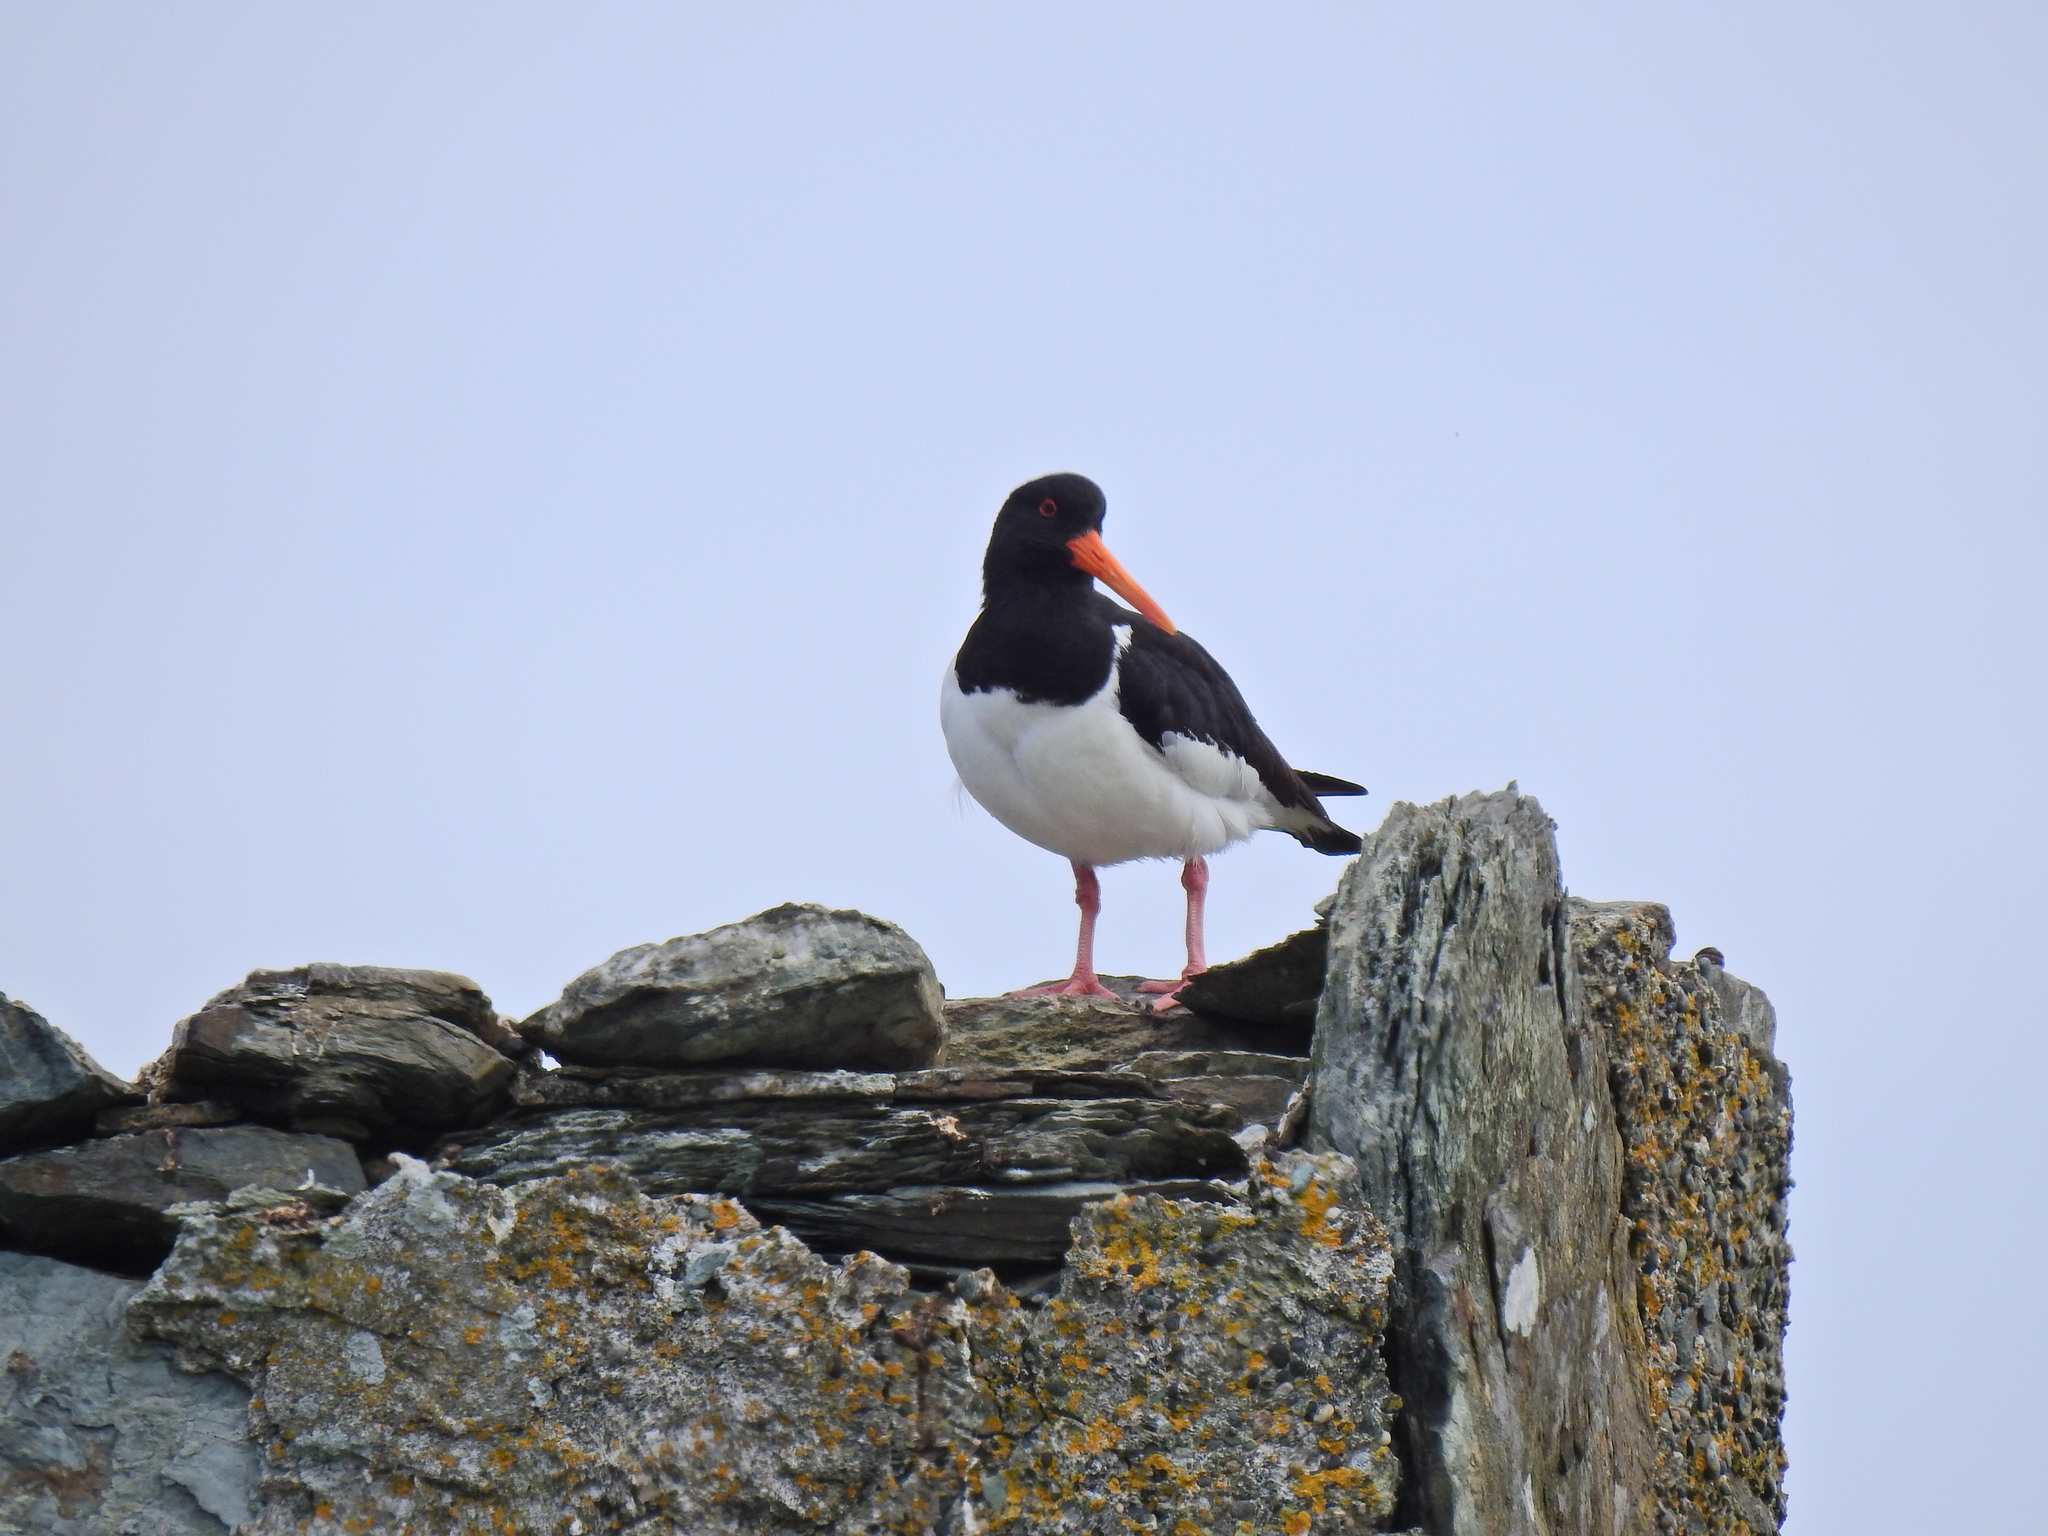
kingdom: Animalia
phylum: Chordata
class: Aves
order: Charadriiformes
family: Haematopodidae
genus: Haematopus
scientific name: Haematopus ostralegus
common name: Eurasian oystercatcher
